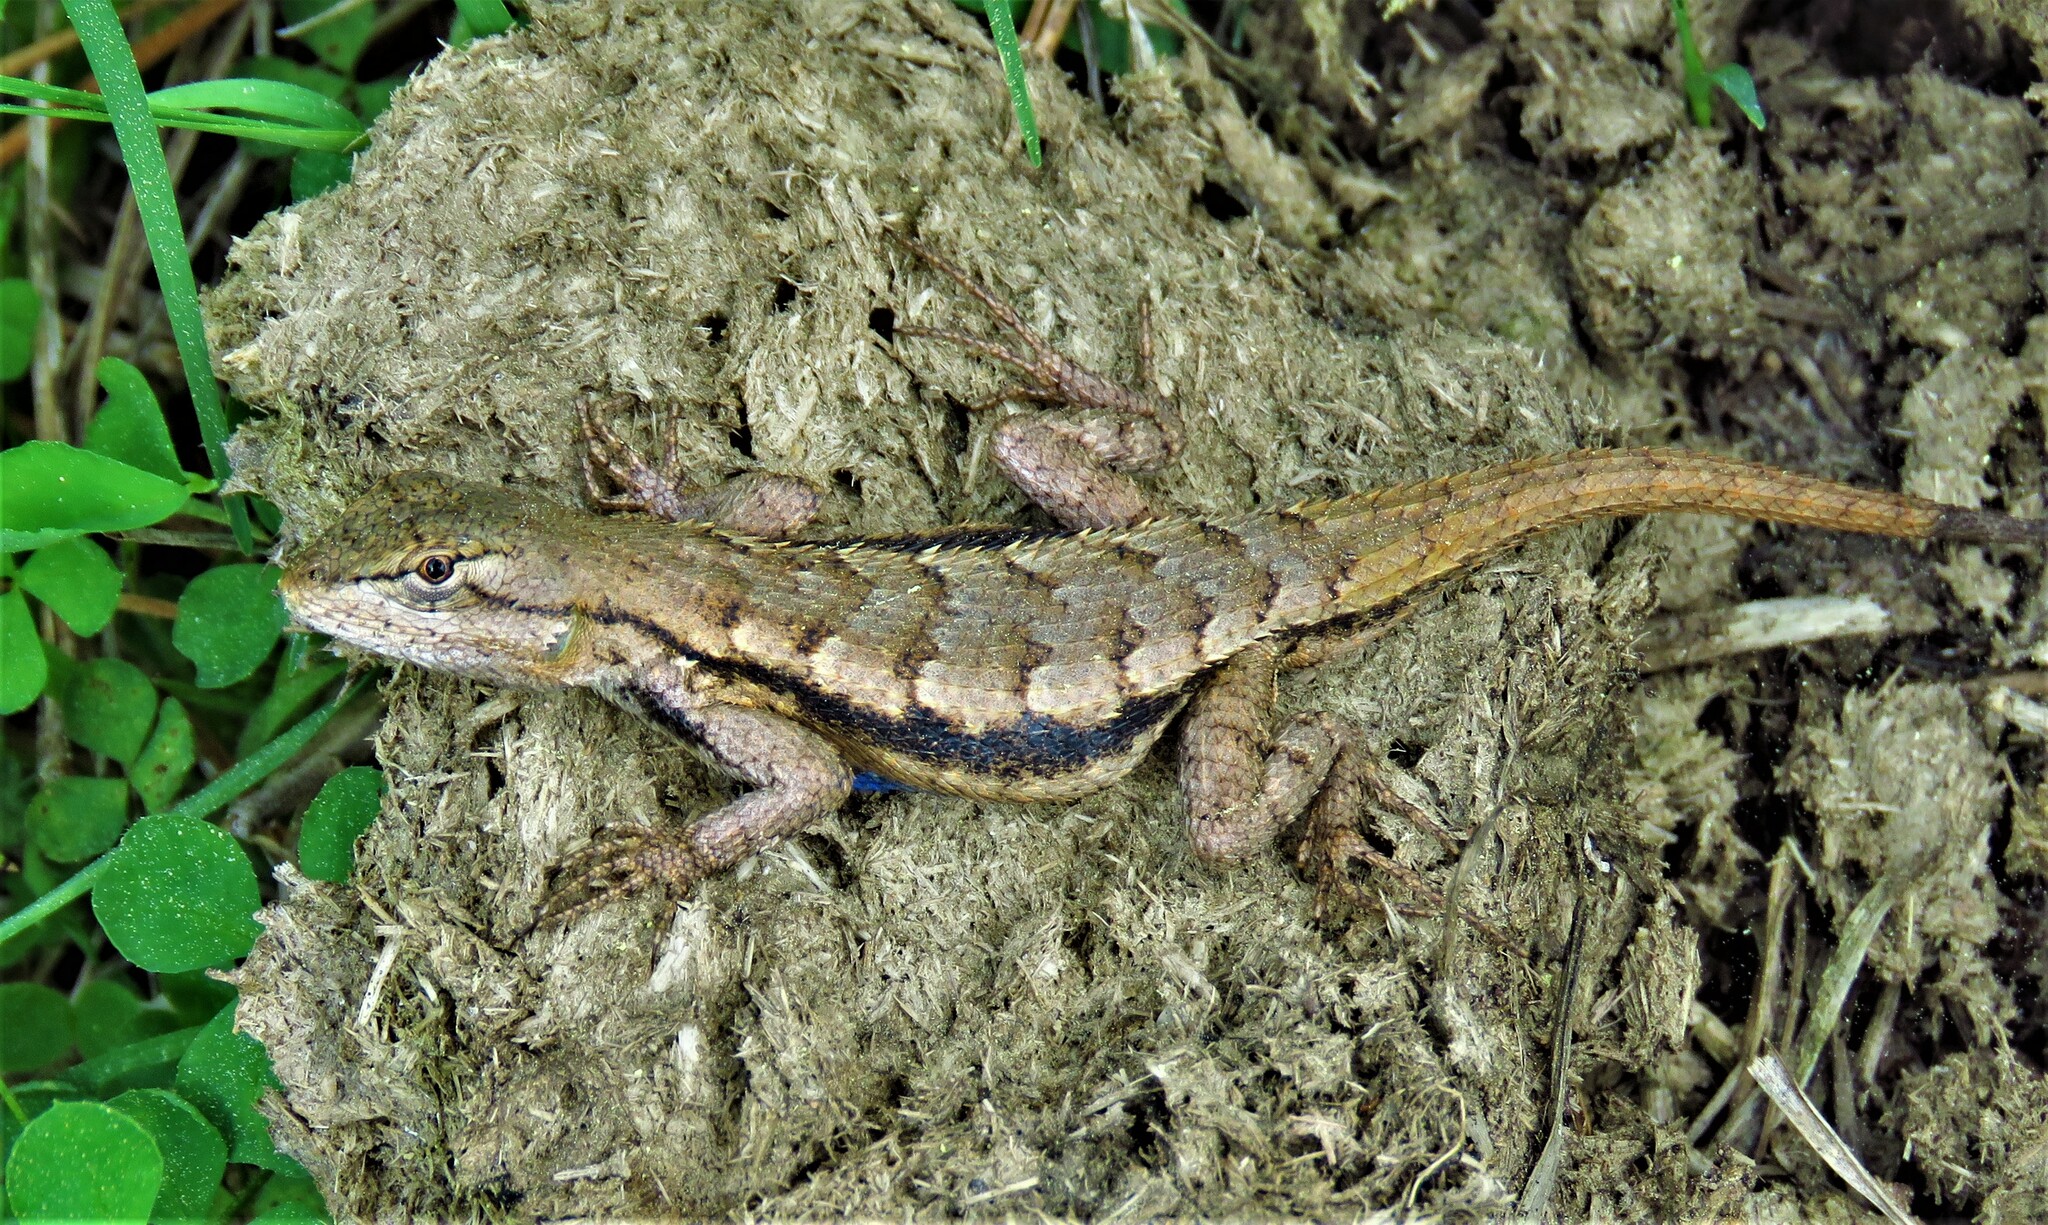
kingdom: Animalia
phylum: Chordata
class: Squamata
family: Phrynosomatidae
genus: Sceloporus
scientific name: Sceloporus consobrinus
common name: Southern prairie lizard
